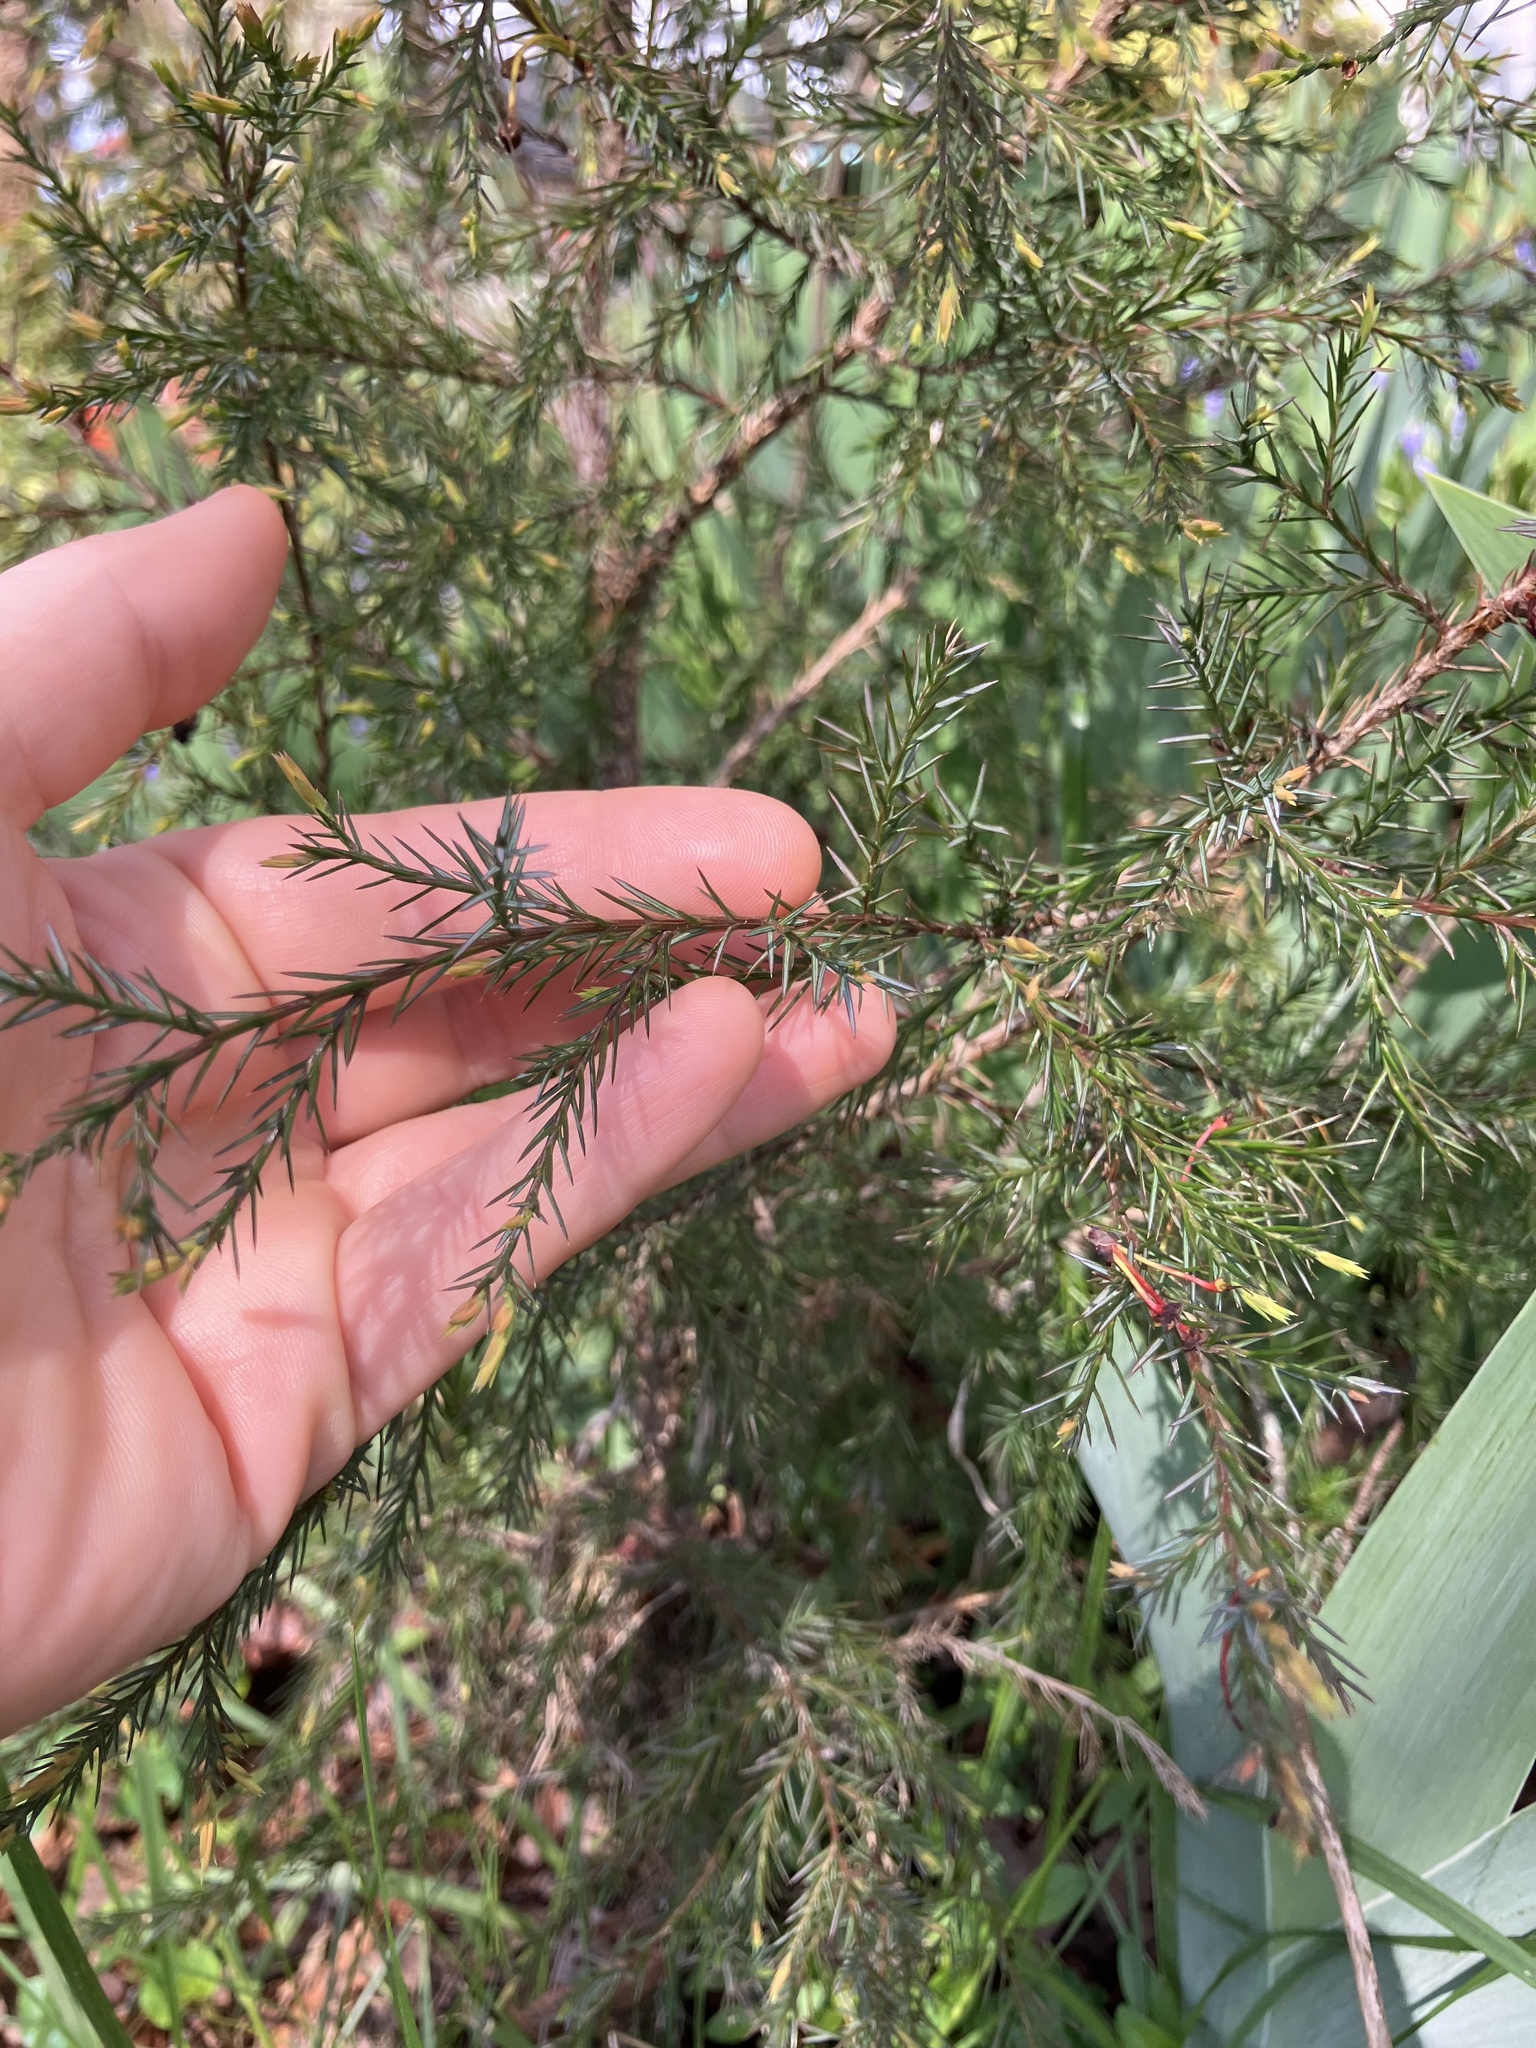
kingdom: Plantae
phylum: Tracheophyta
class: Pinopsida
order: Pinales
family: Cupressaceae
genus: Juniperus
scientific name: Juniperus virginiana
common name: Red juniper
